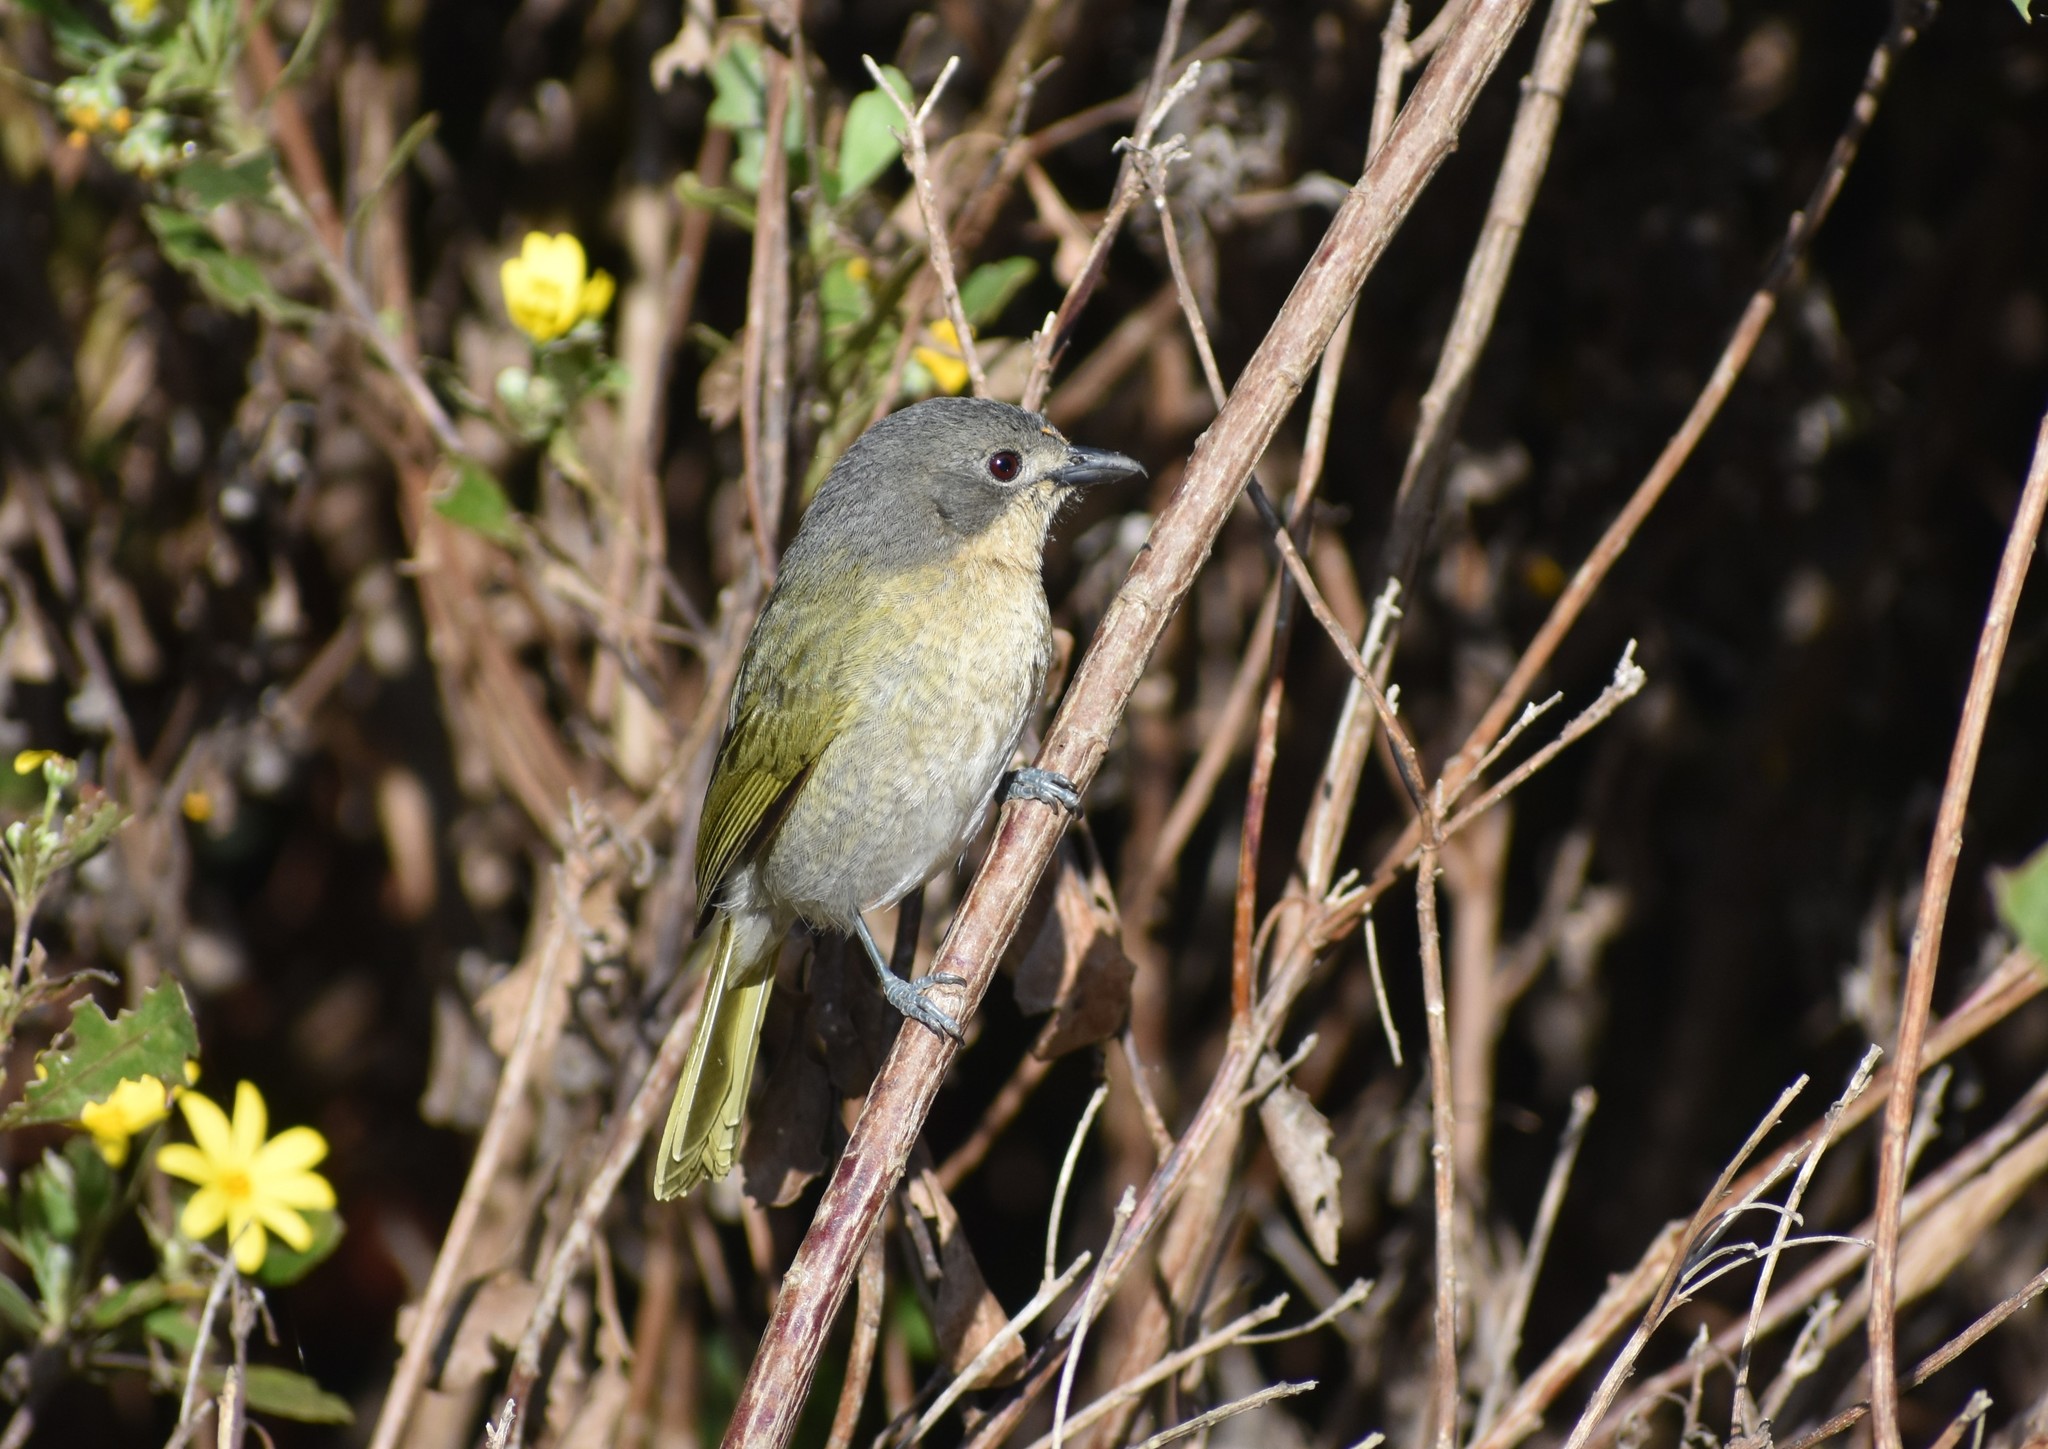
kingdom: Animalia
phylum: Chordata
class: Aves
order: Passeriformes
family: Malaconotidae
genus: Chlorophoneus
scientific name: Chlorophoneus olivaceus
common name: Olive bushshrike
